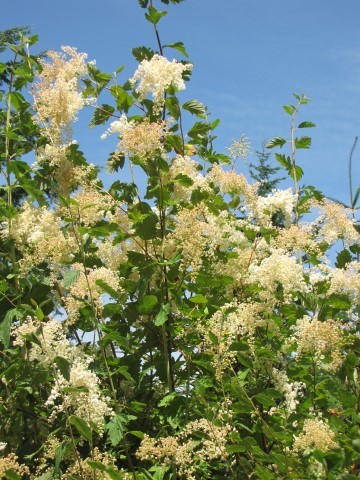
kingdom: Plantae
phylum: Tracheophyta
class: Magnoliopsida
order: Rosales
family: Rosaceae
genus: Holodiscus
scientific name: Holodiscus discolor
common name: Oceanspray
